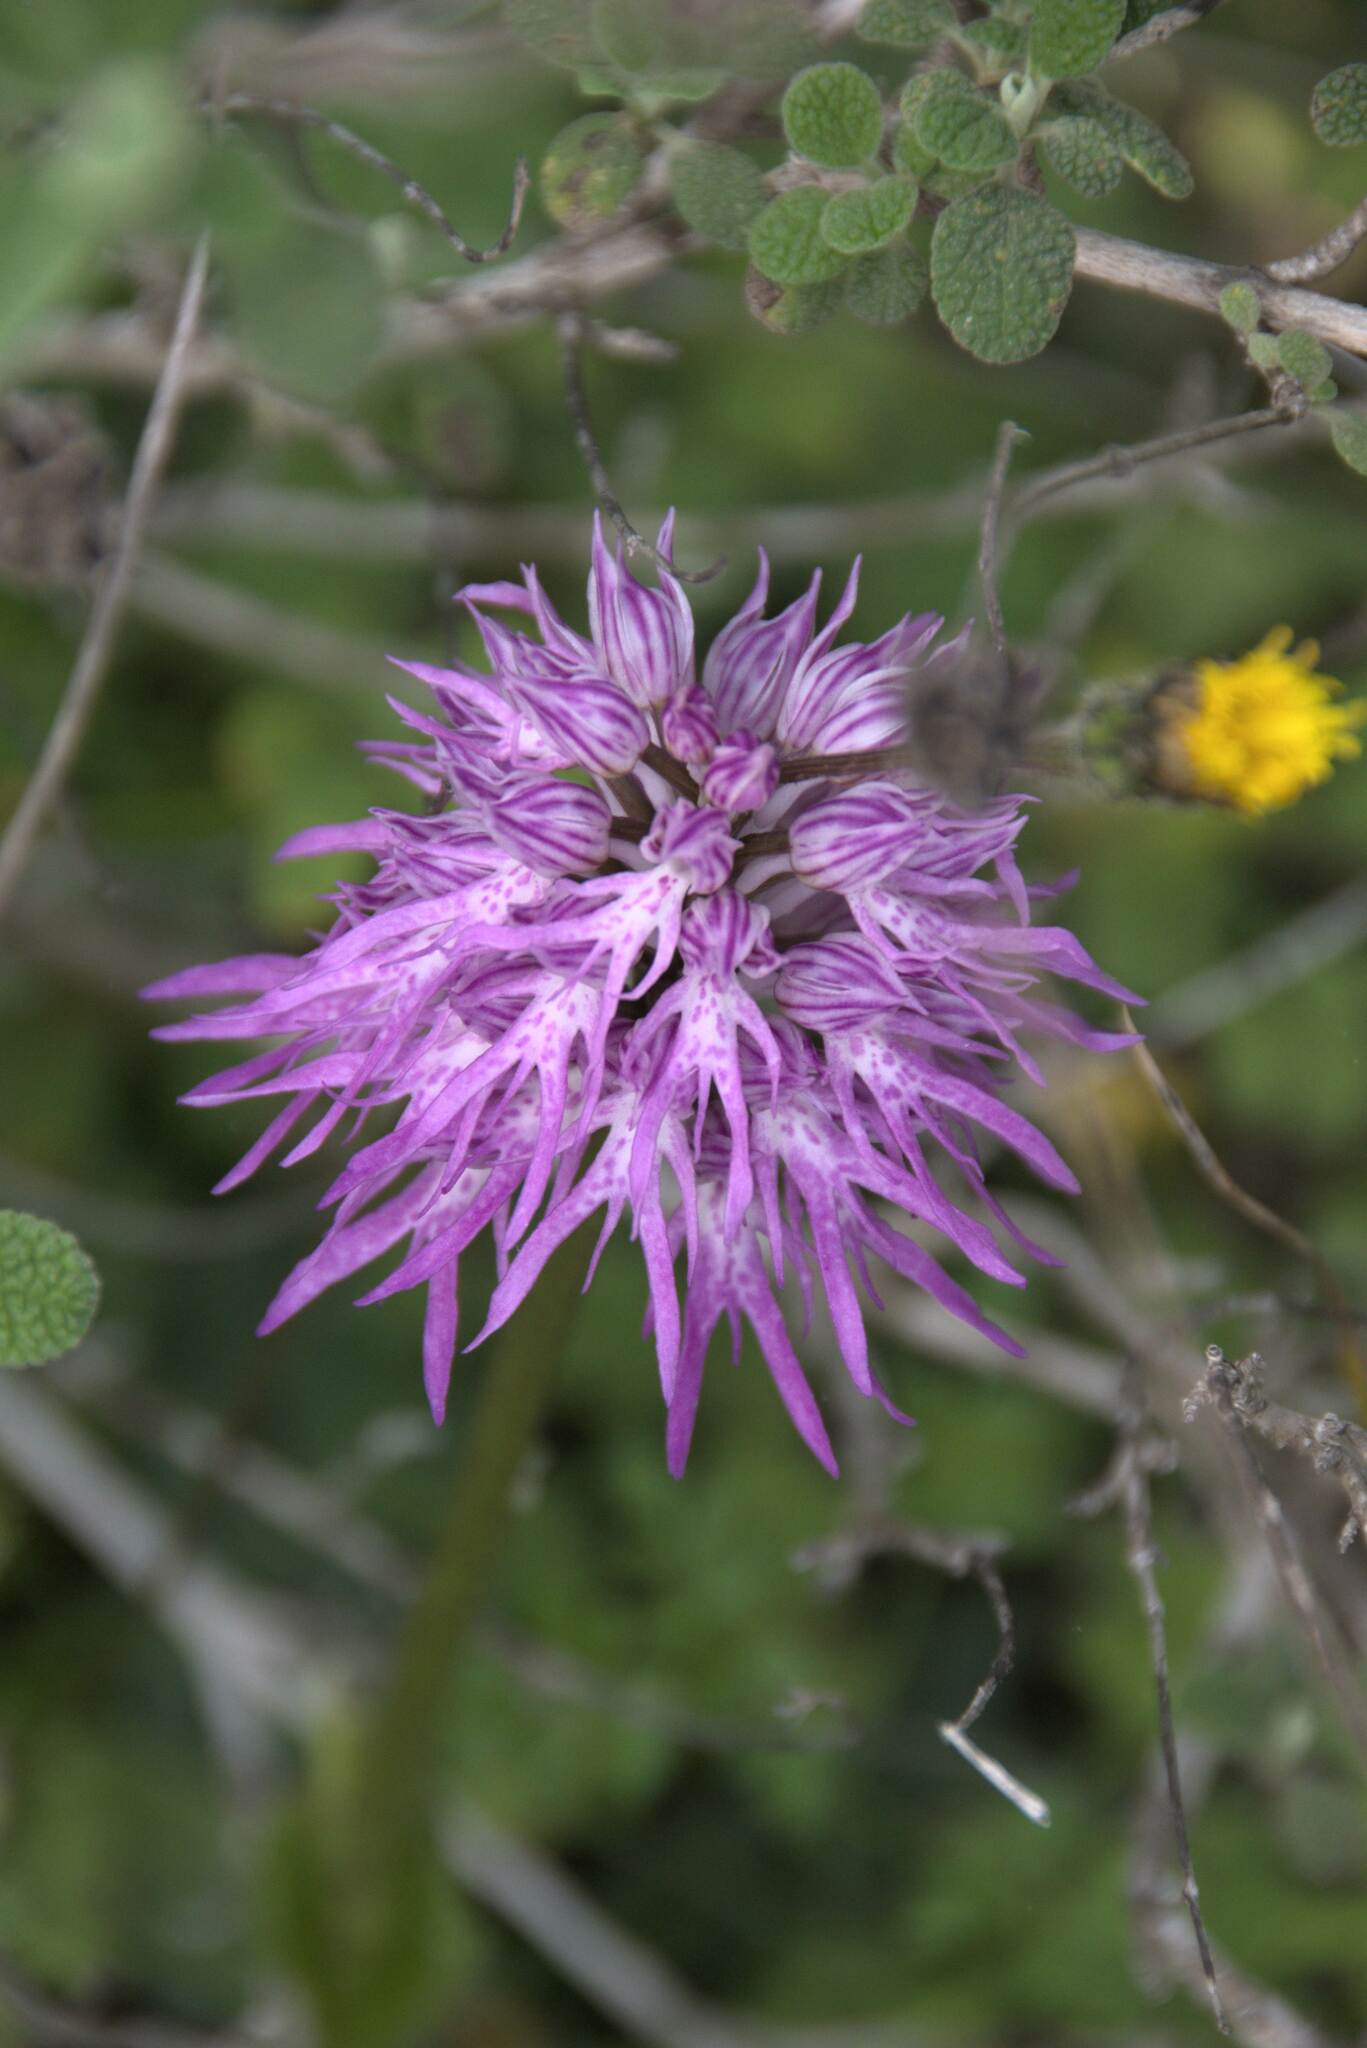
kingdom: Plantae
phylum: Tracheophyta
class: Liliopsida
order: Asparagales
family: Orchidaceae
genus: Orchis
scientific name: Orchis italica
